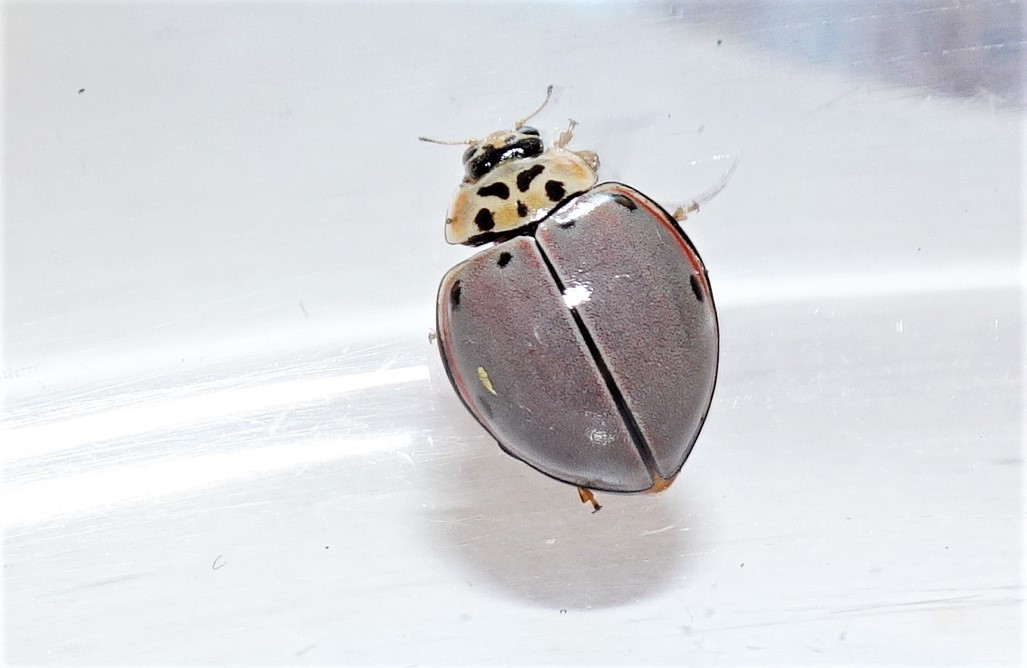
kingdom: Animalia
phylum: Arthropoda
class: Insecta
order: Coleoptera
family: Coccinellidae
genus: Archegleis
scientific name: Archegleis
